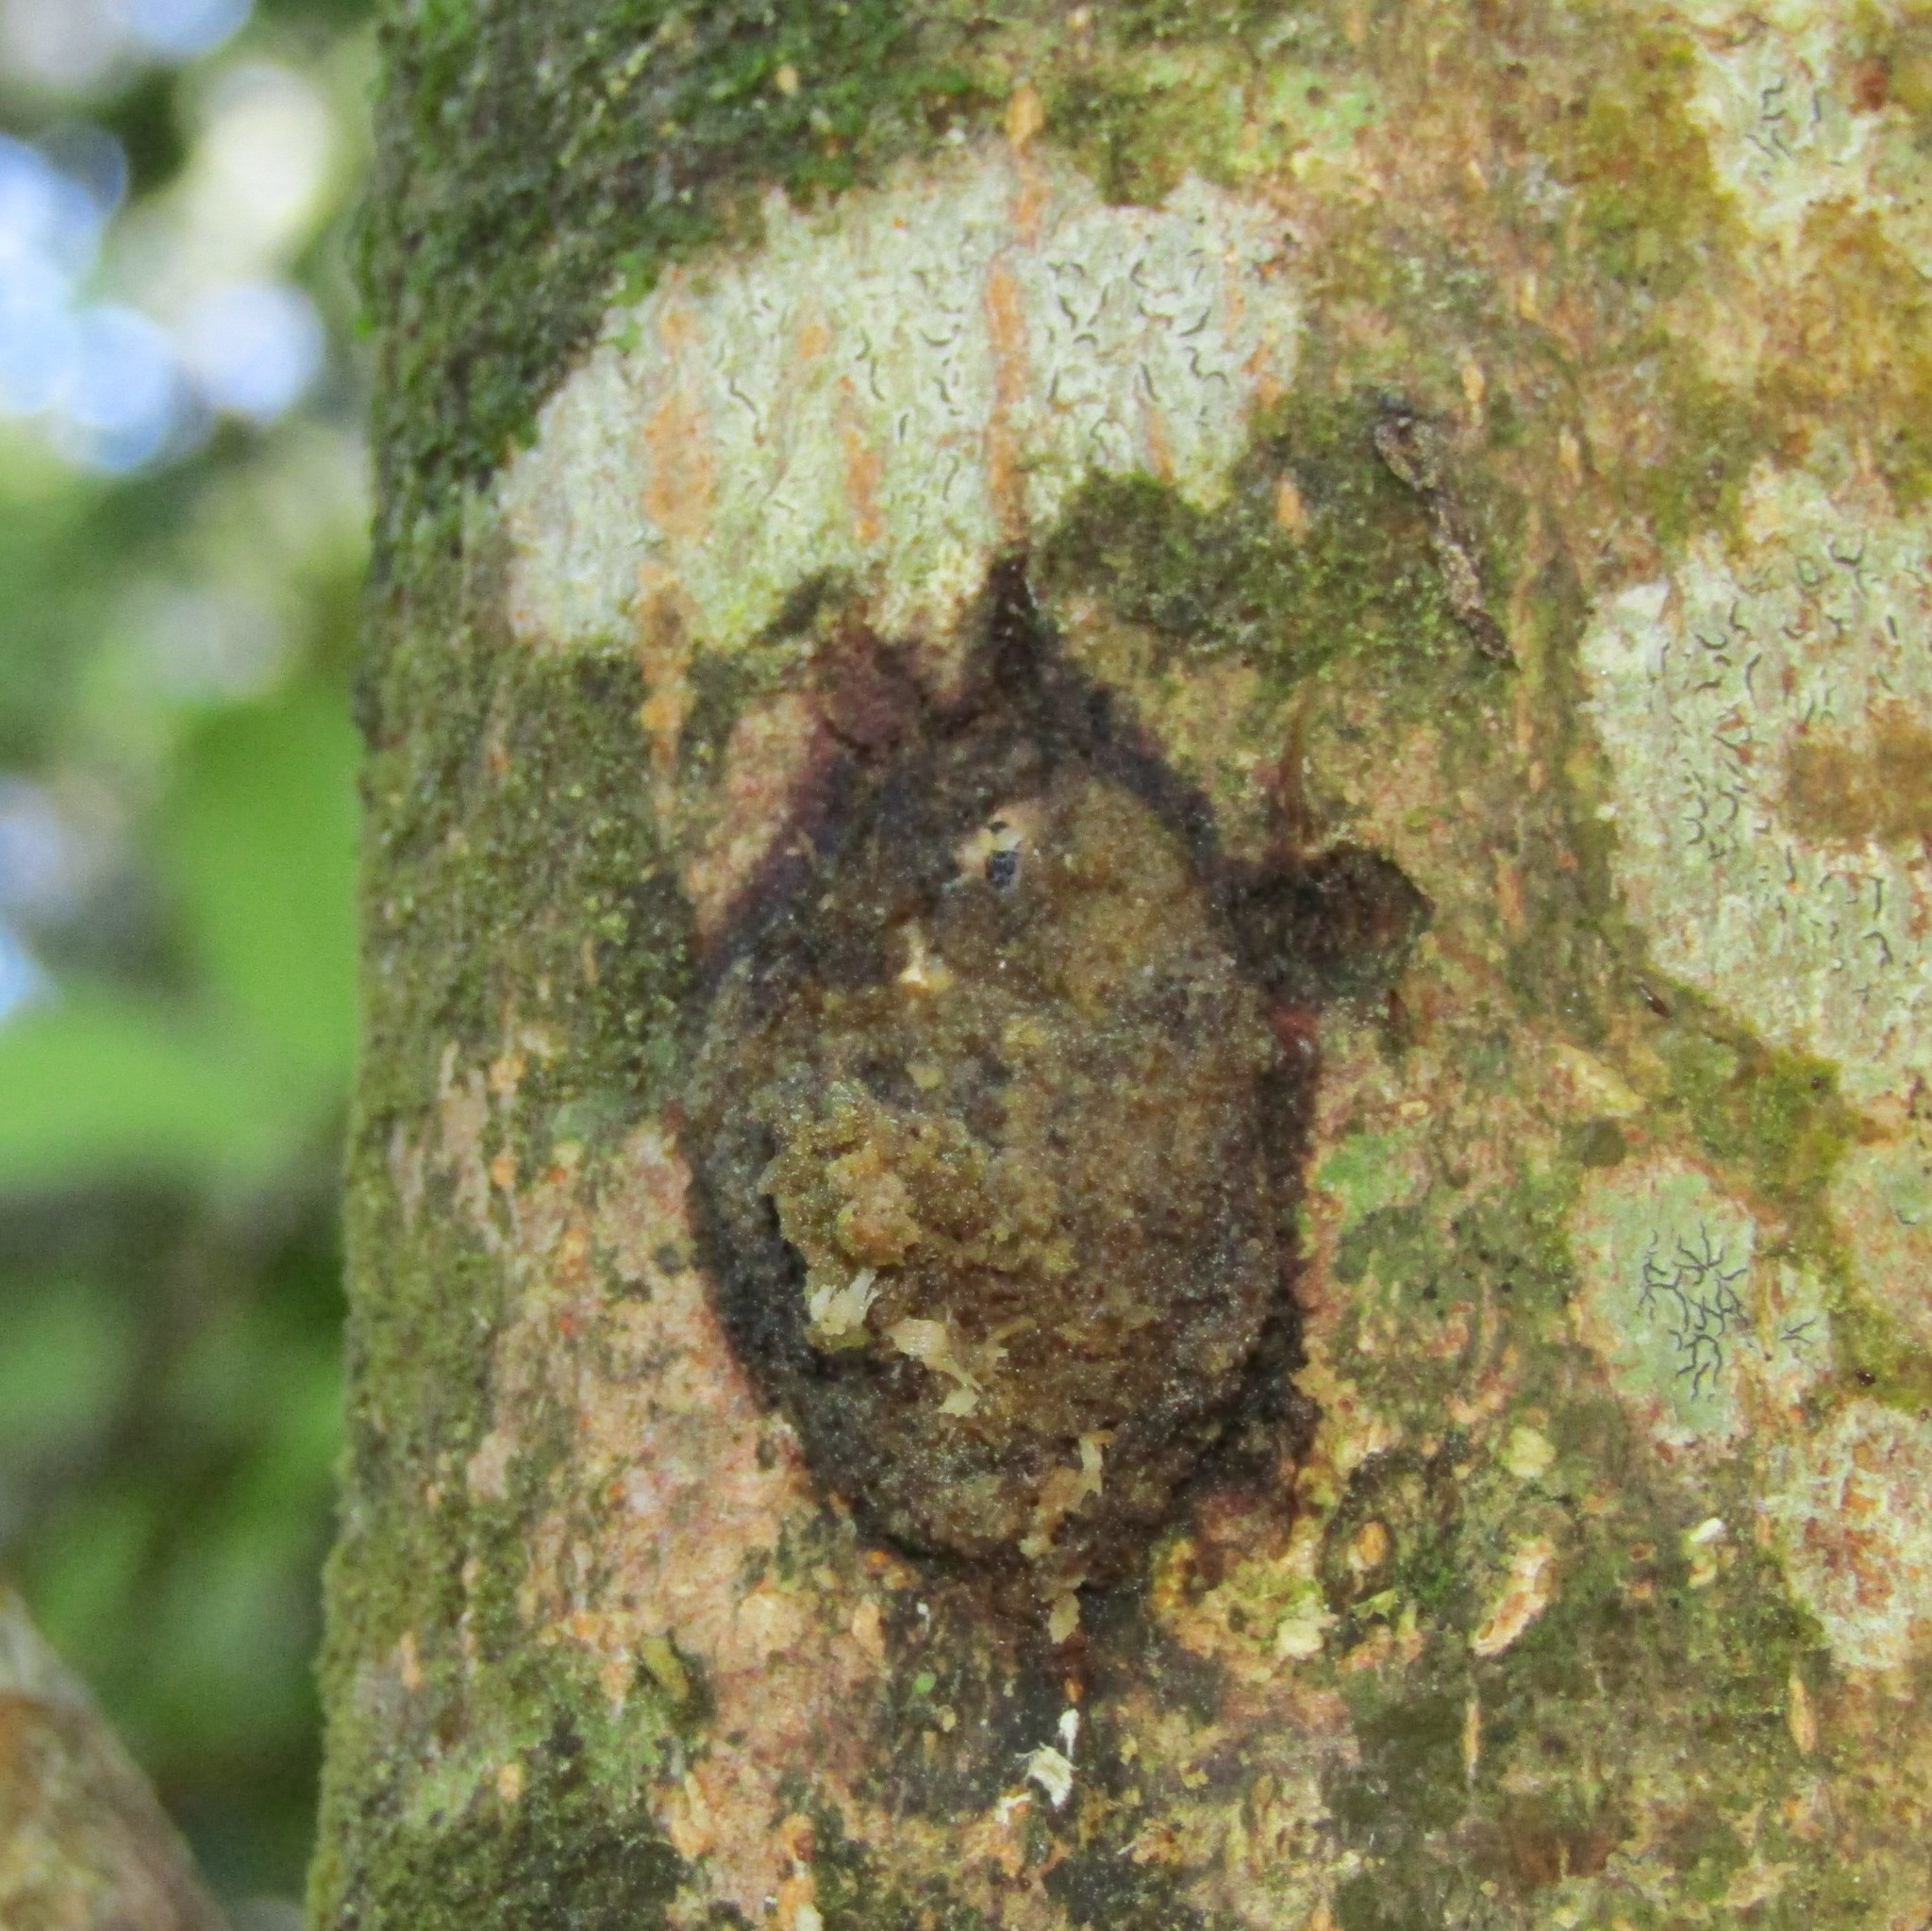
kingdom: Animalia
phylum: Arthropoda
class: Insecta
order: Lepidoptera
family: Hepialidae
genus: Aenetus
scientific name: Aenetus virescens
